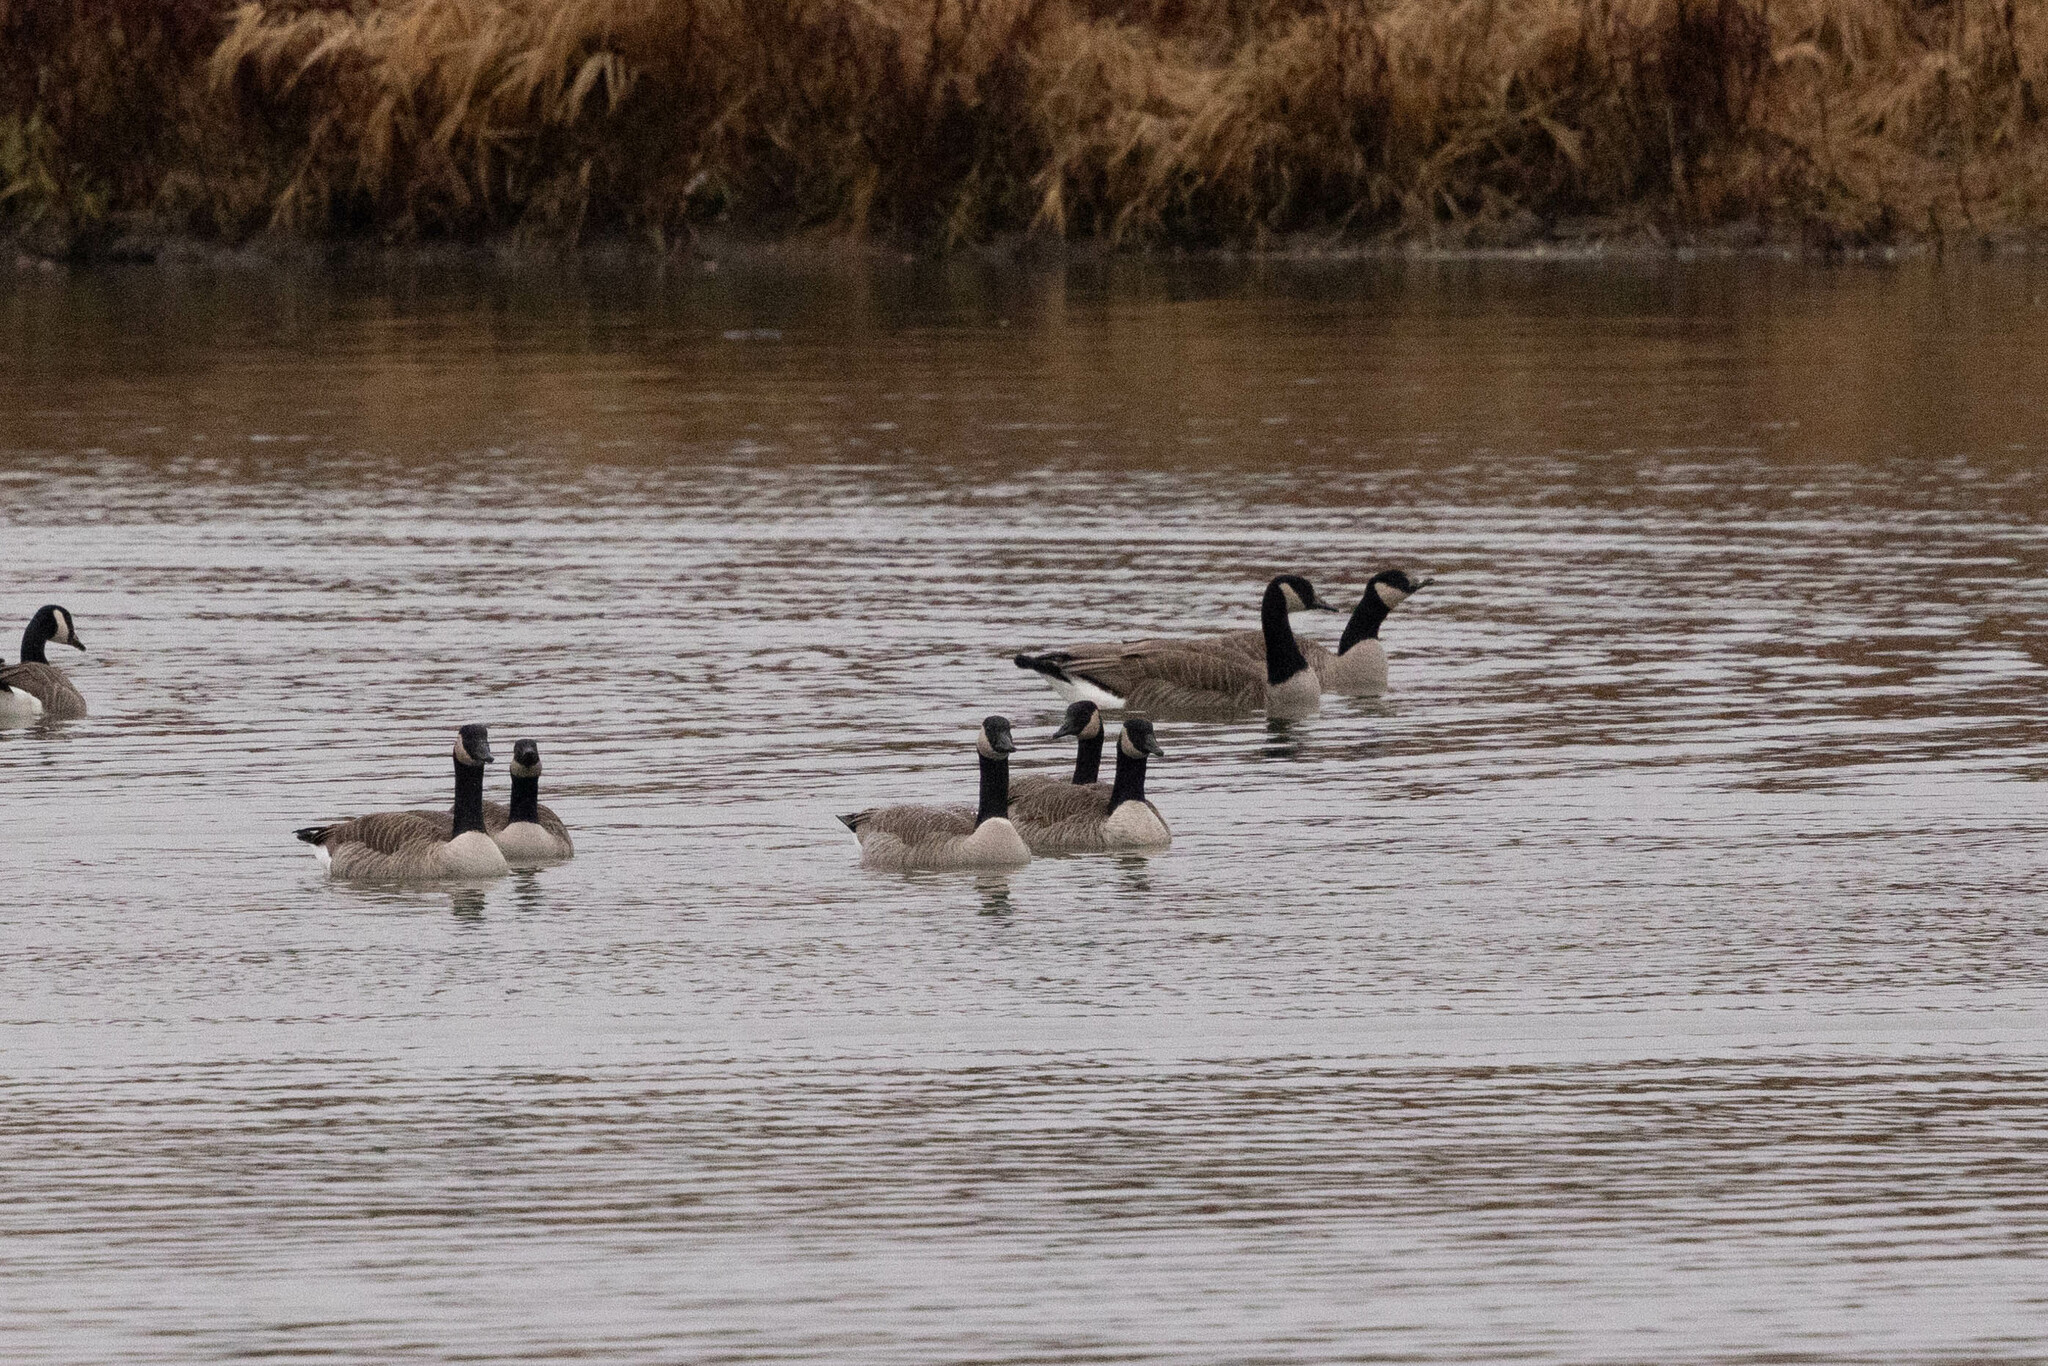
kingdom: Animalia
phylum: Chordata
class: Aves
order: Anseriformes
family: Anatidae
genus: Branta
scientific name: Branta canadensis
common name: Canada goose
